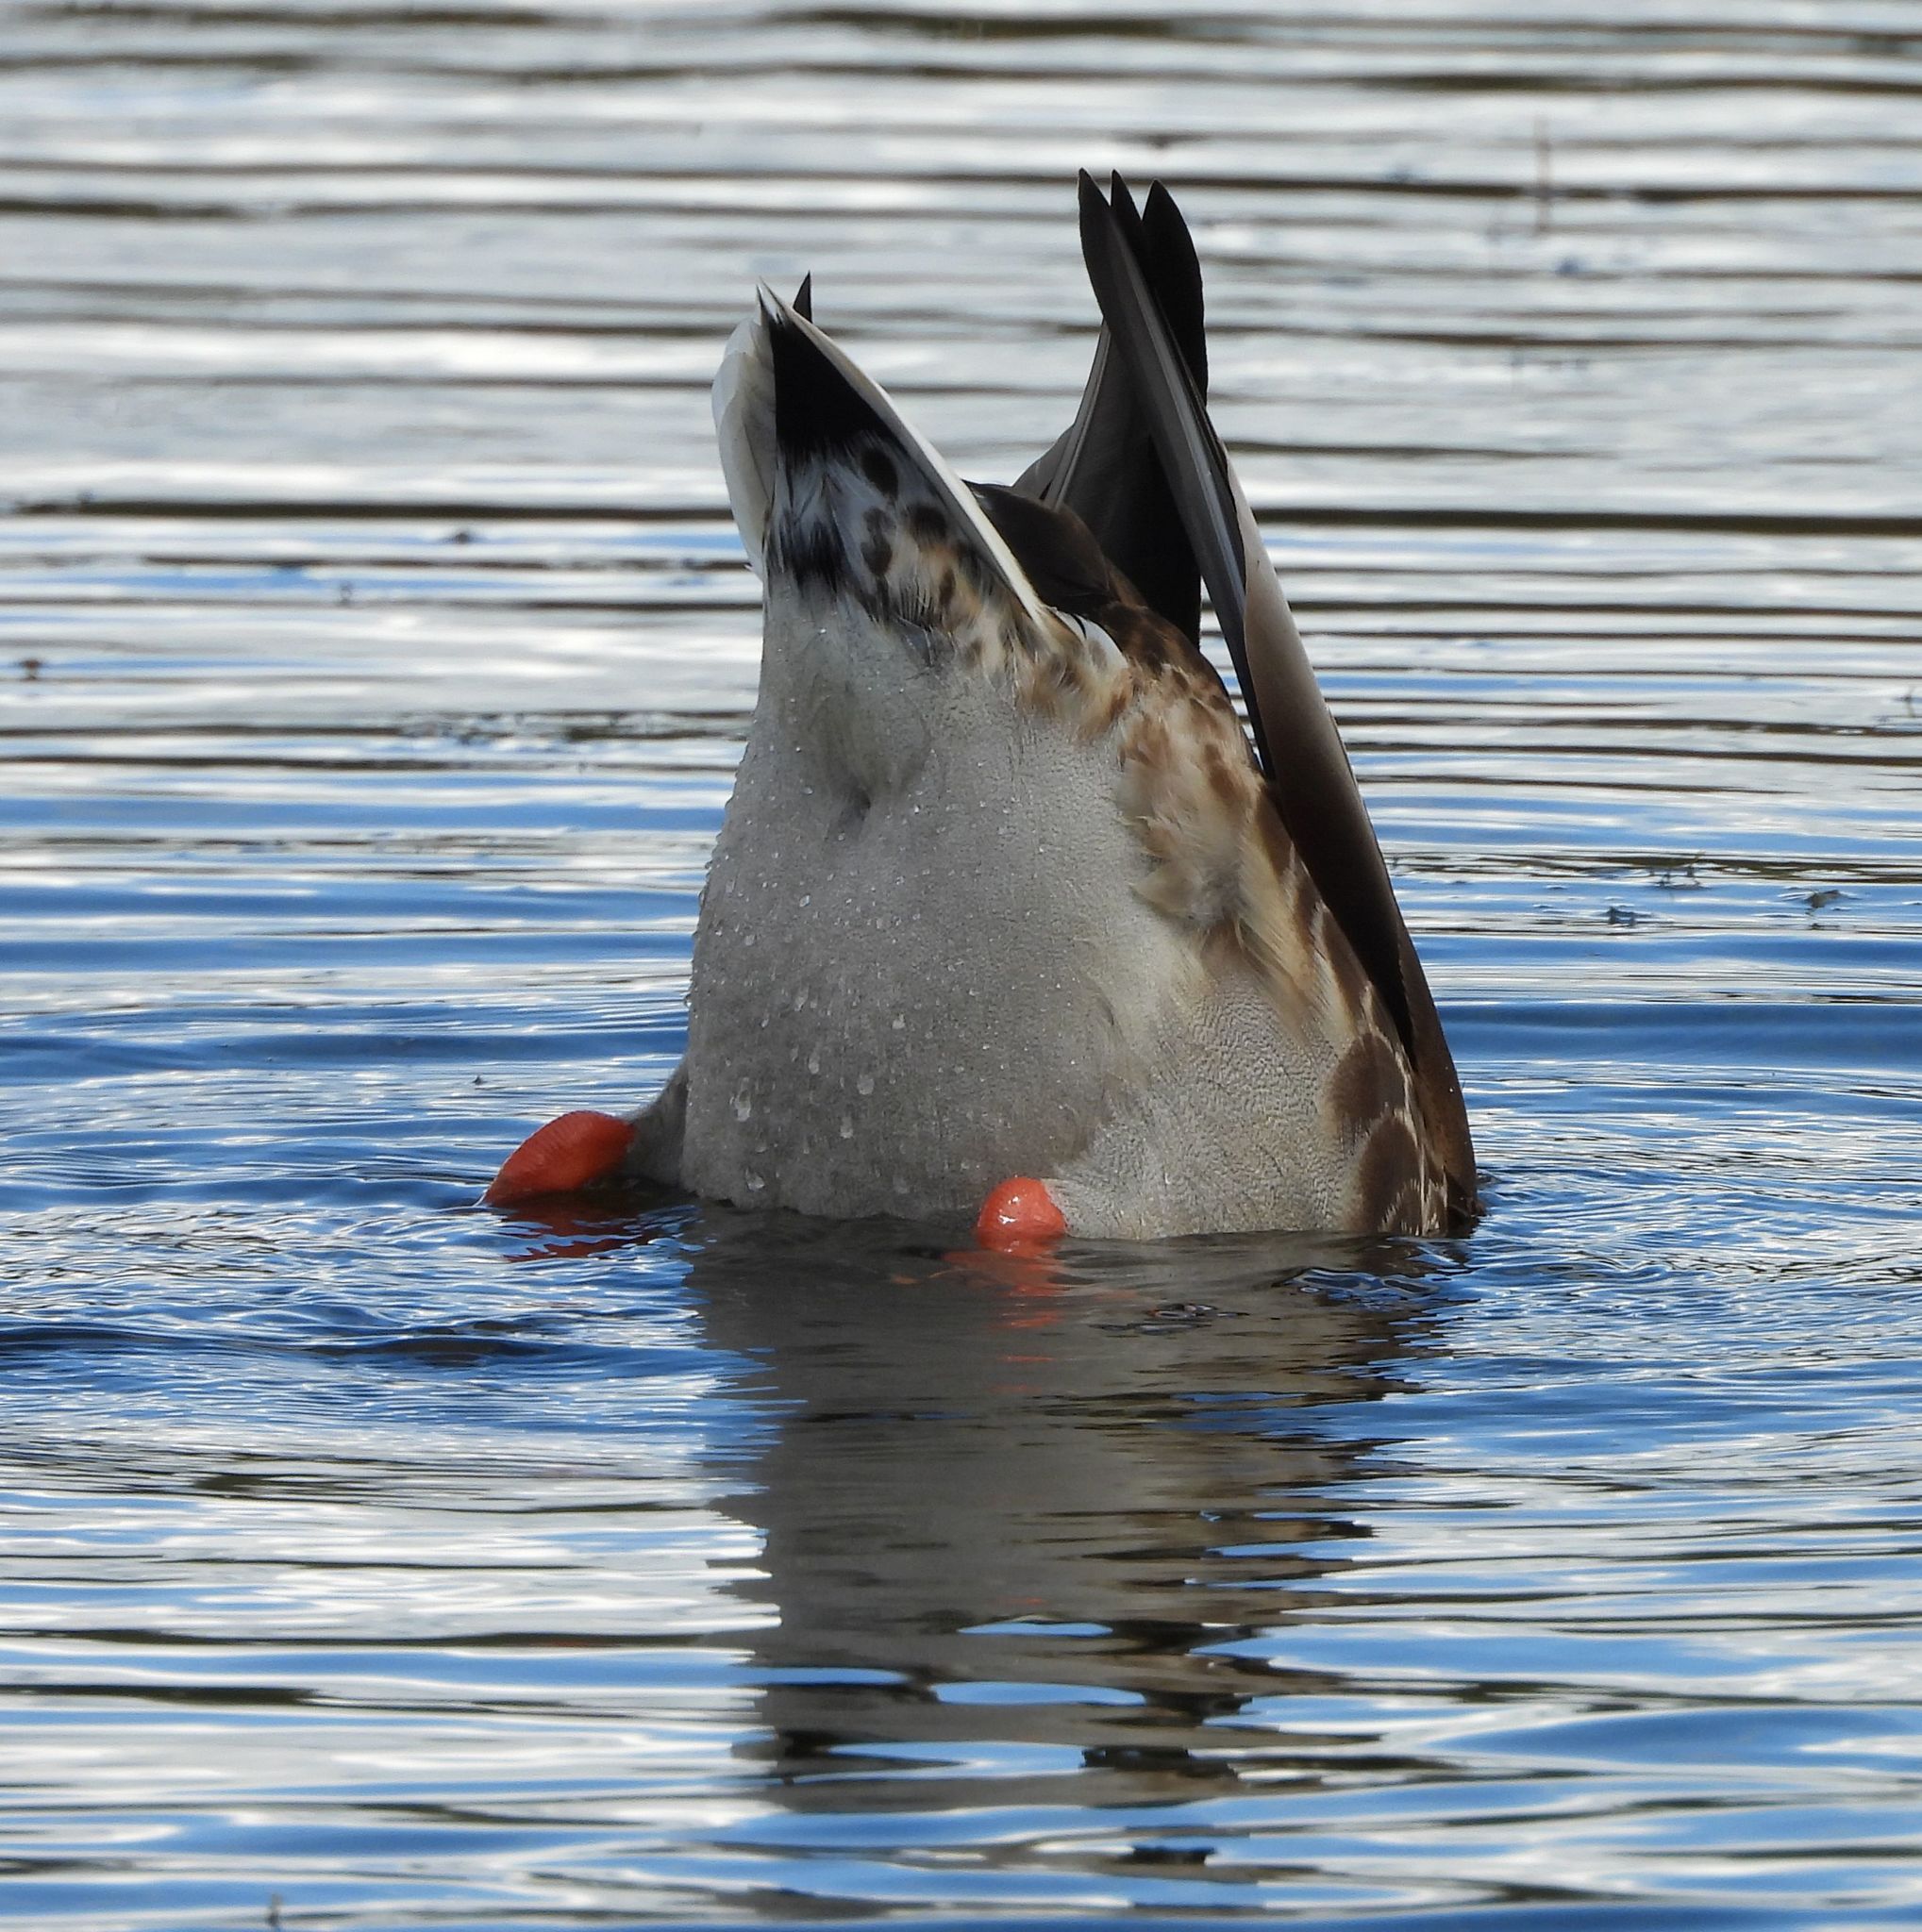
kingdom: Animalia
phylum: Chordata
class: Aves
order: Anseriformes
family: Anatidae
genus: Anas
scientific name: Anas platyrhynchos
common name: Mallard
